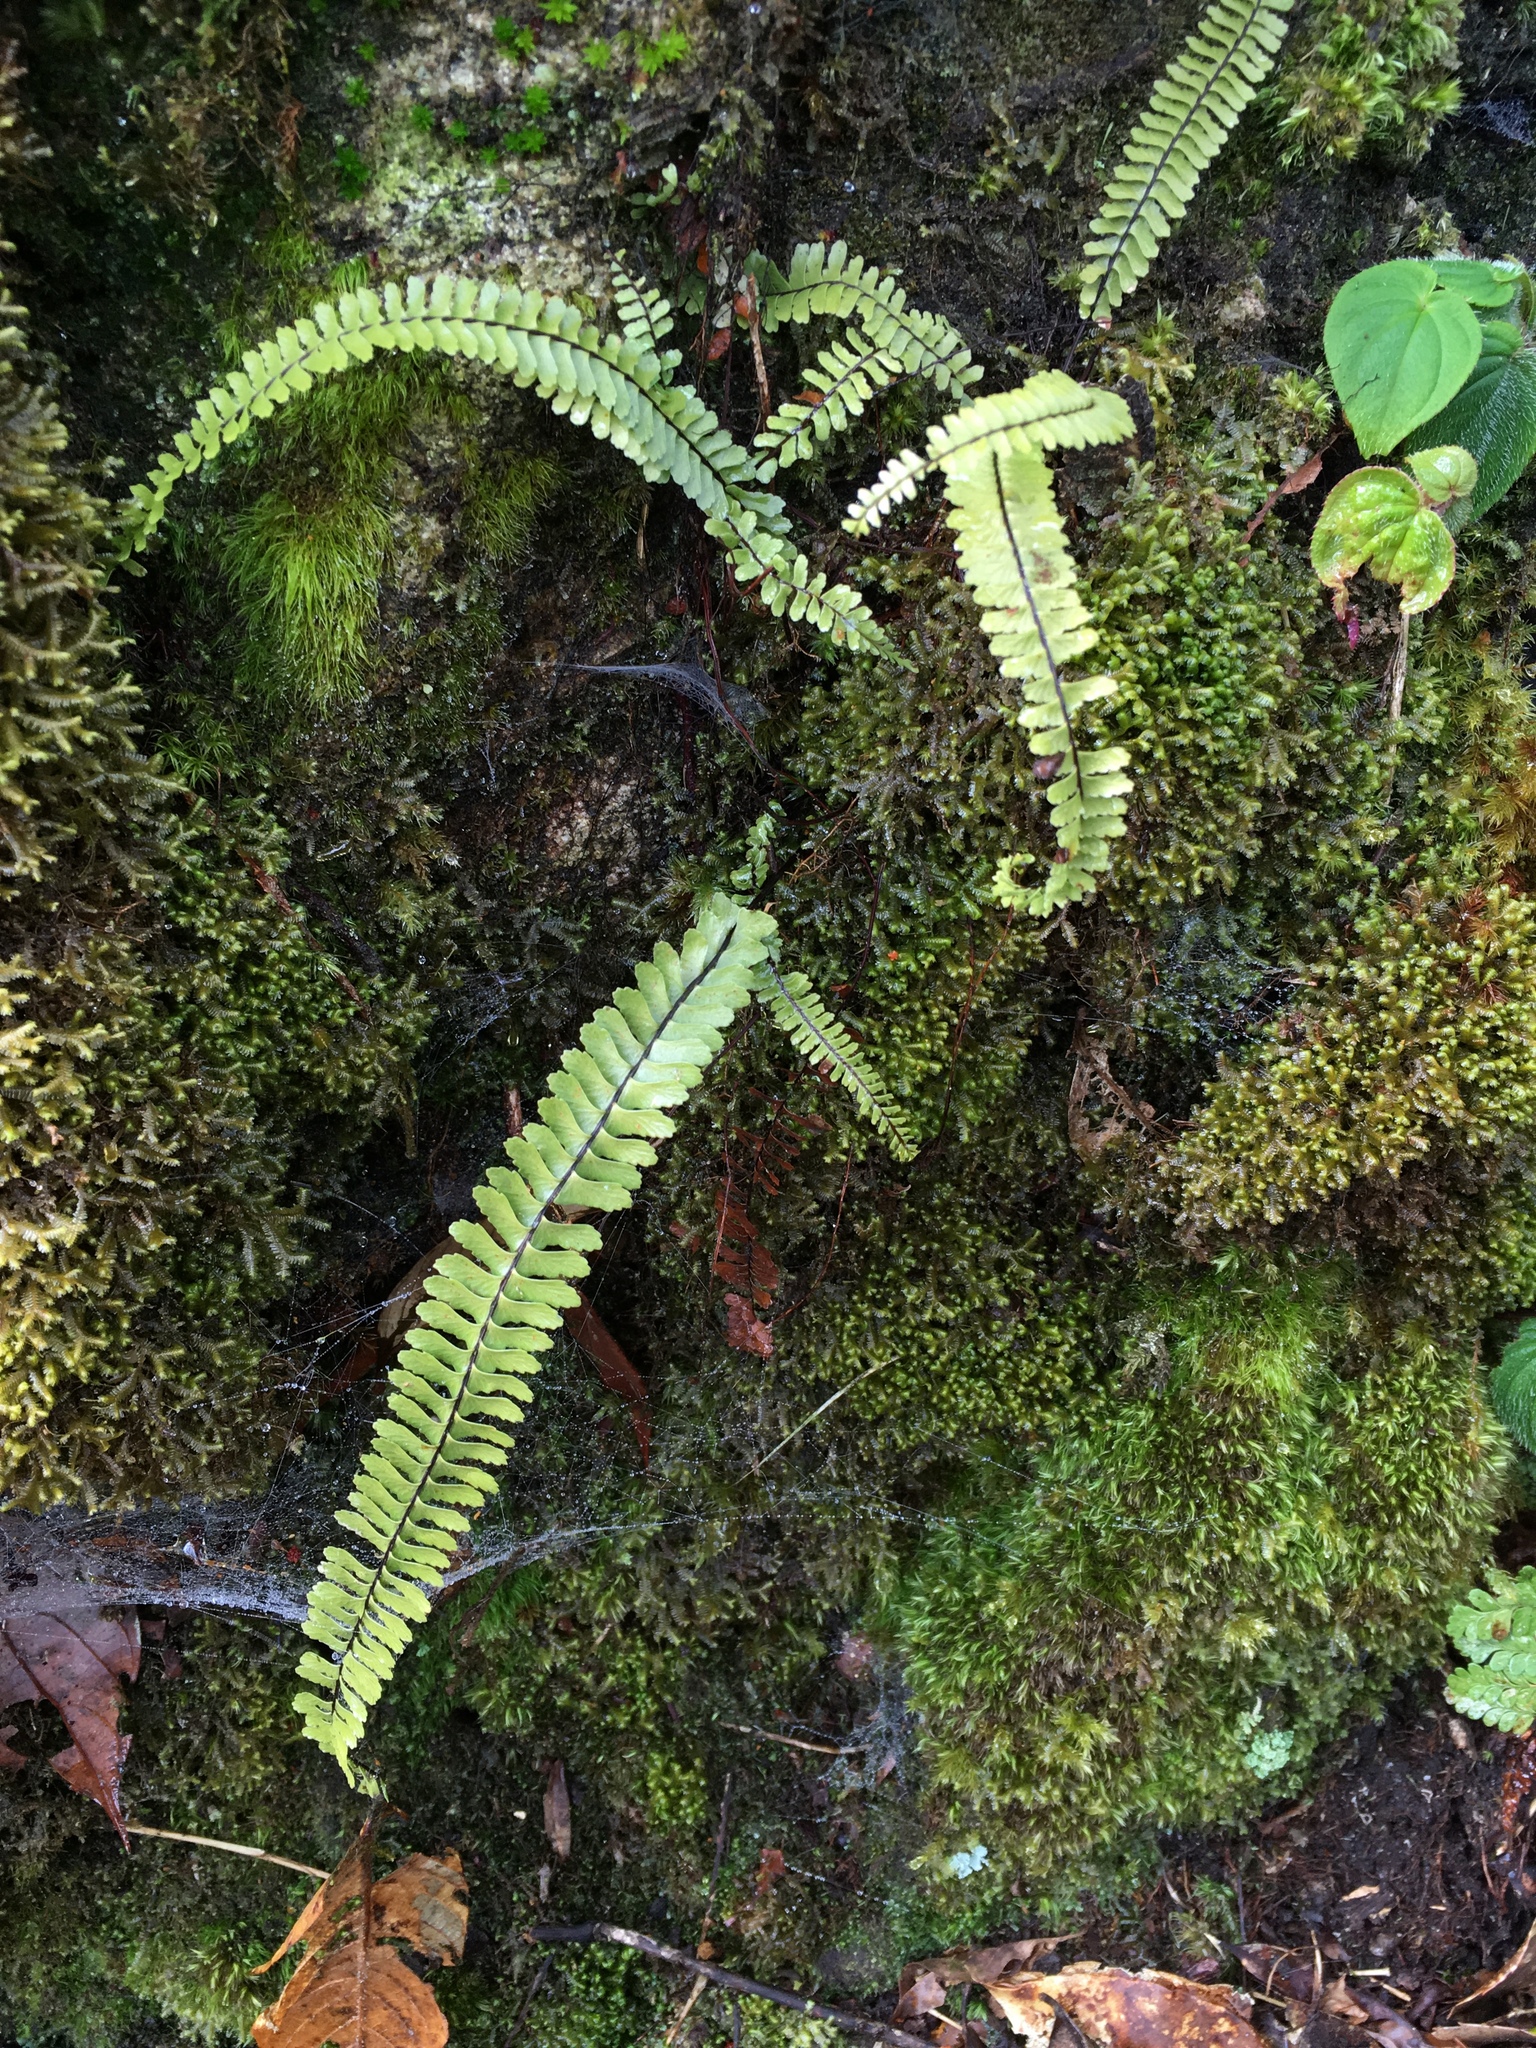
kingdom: Plantae
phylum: Tracheophyta
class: Polypodiopsida
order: Polypodiales
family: Aspleniaceae
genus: Asplenium
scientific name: Asplenium normale
